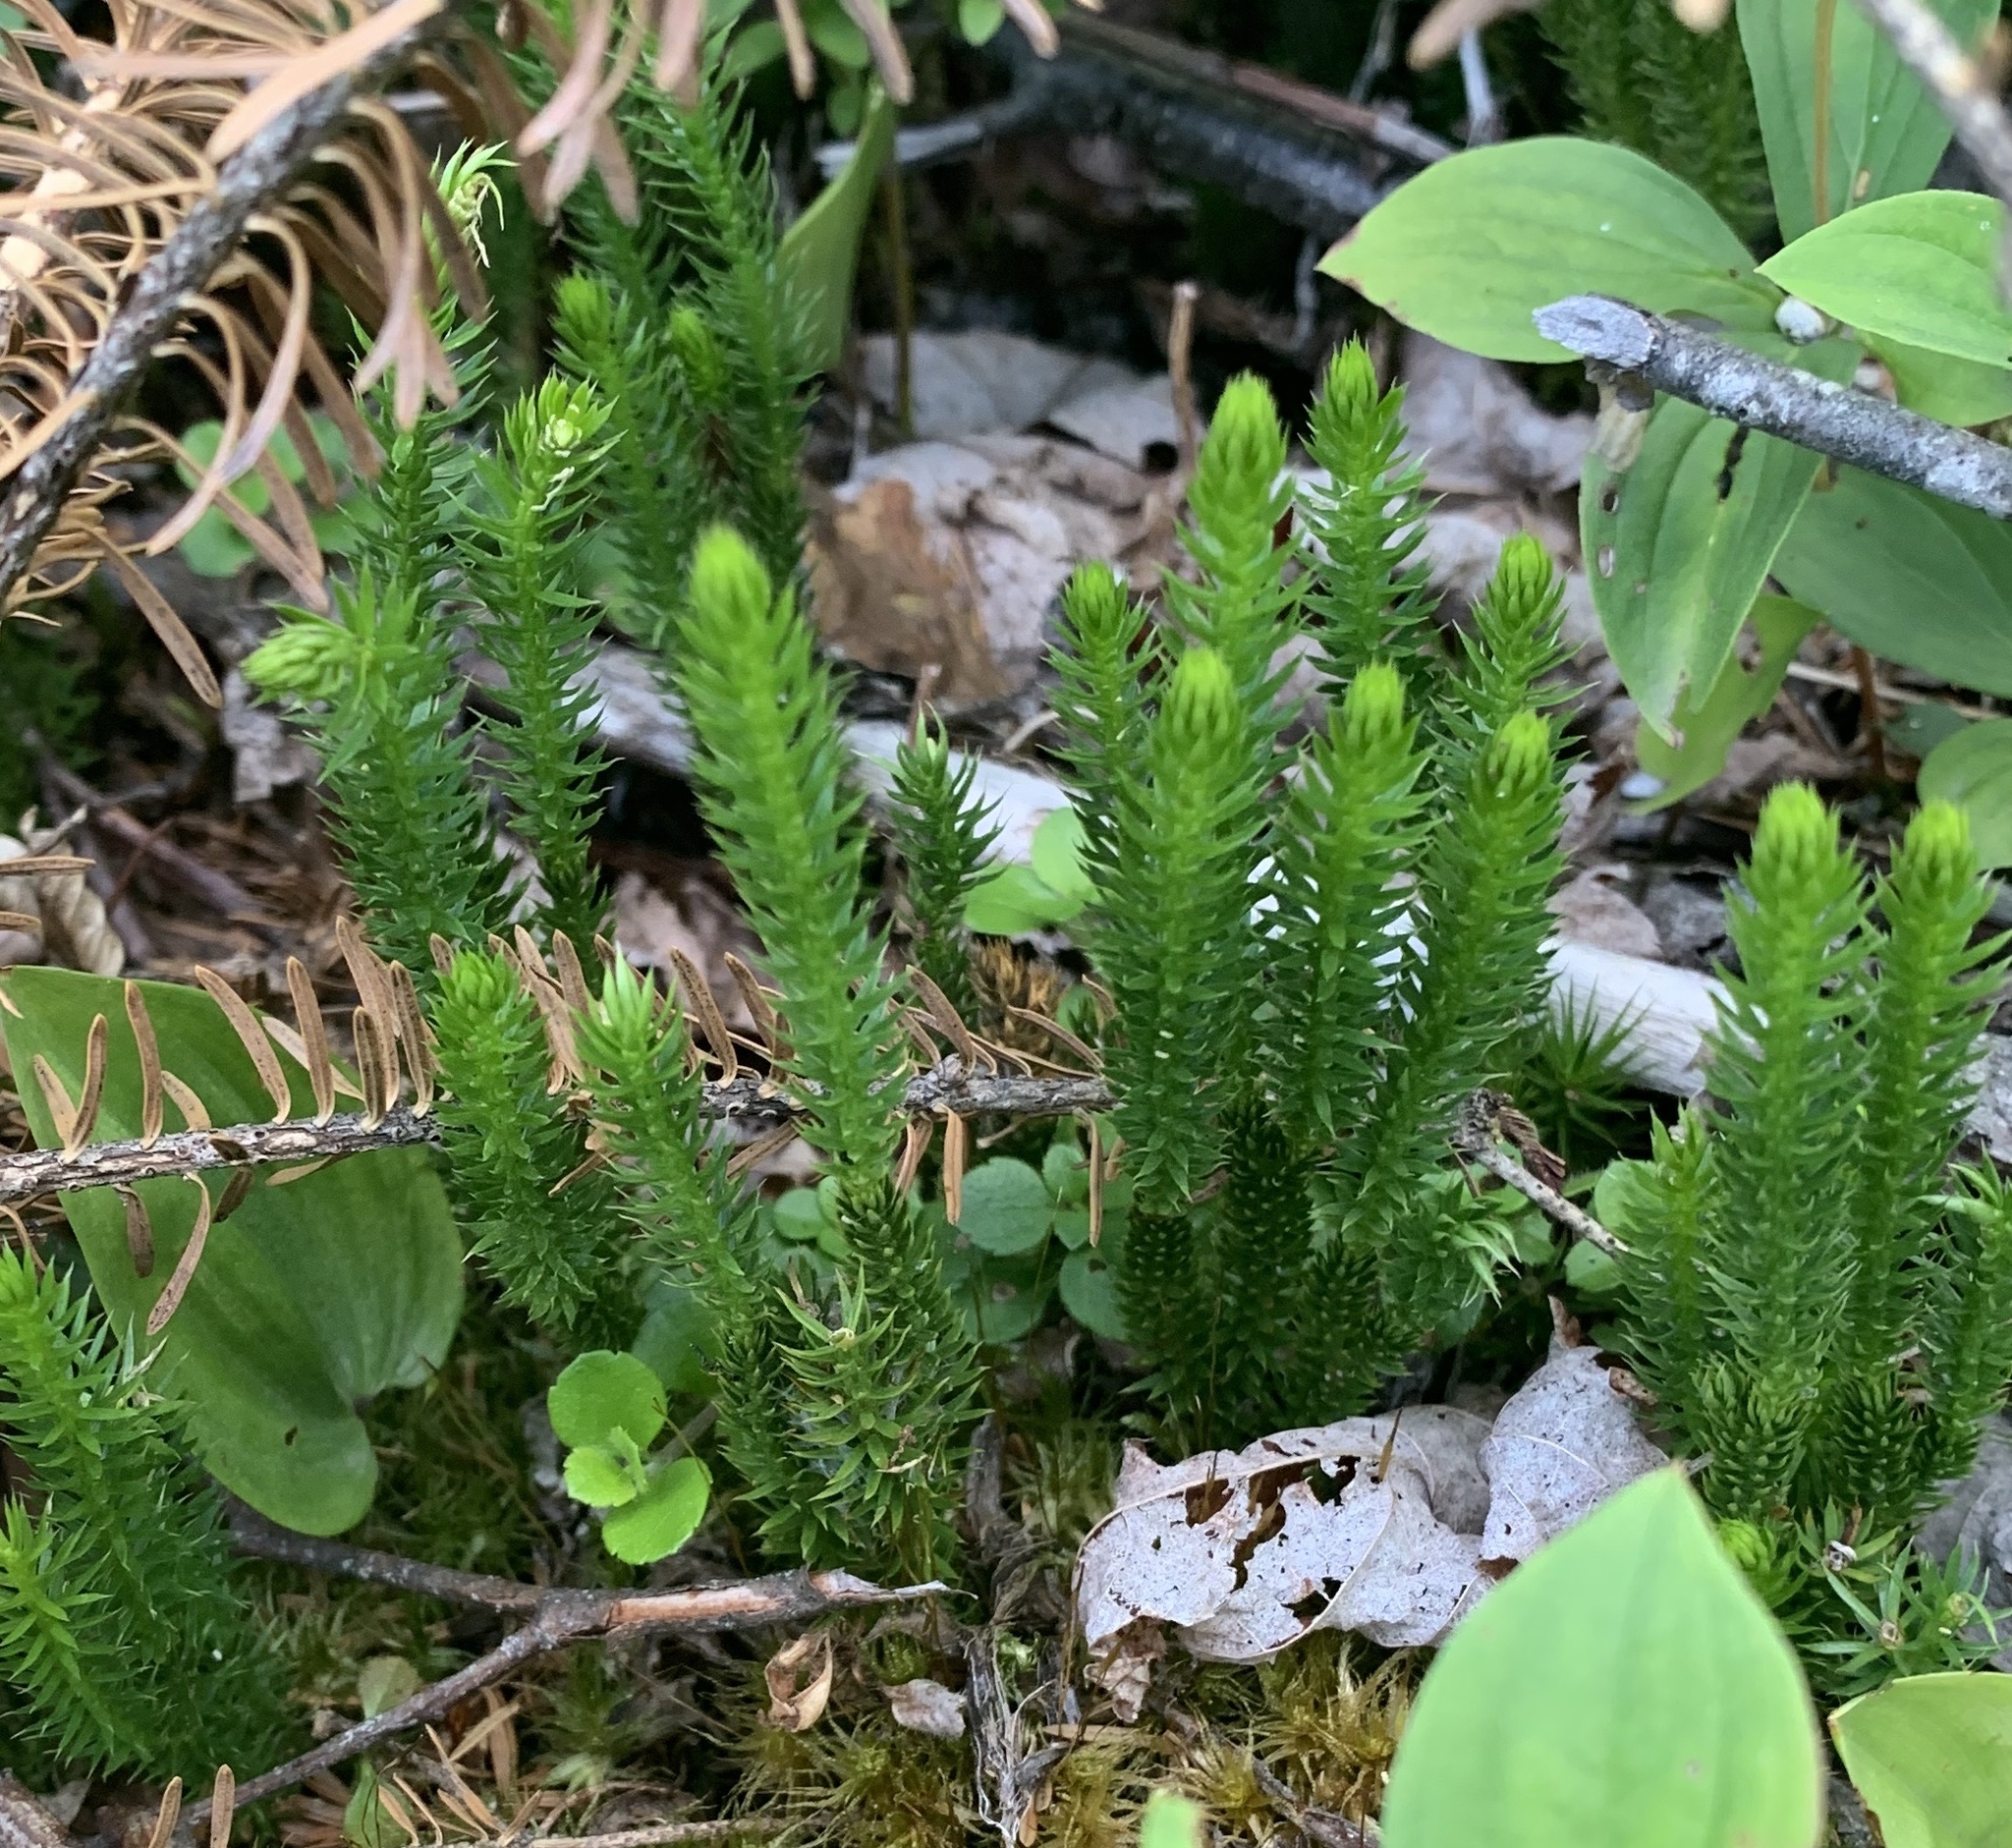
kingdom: Plantae
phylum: Tracheophyta
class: Lycopodiopsida
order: Lycopodiales
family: Lycopodiaceae
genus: Spinulum
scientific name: Spinulum annotinum
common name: Interrupted club-moss
